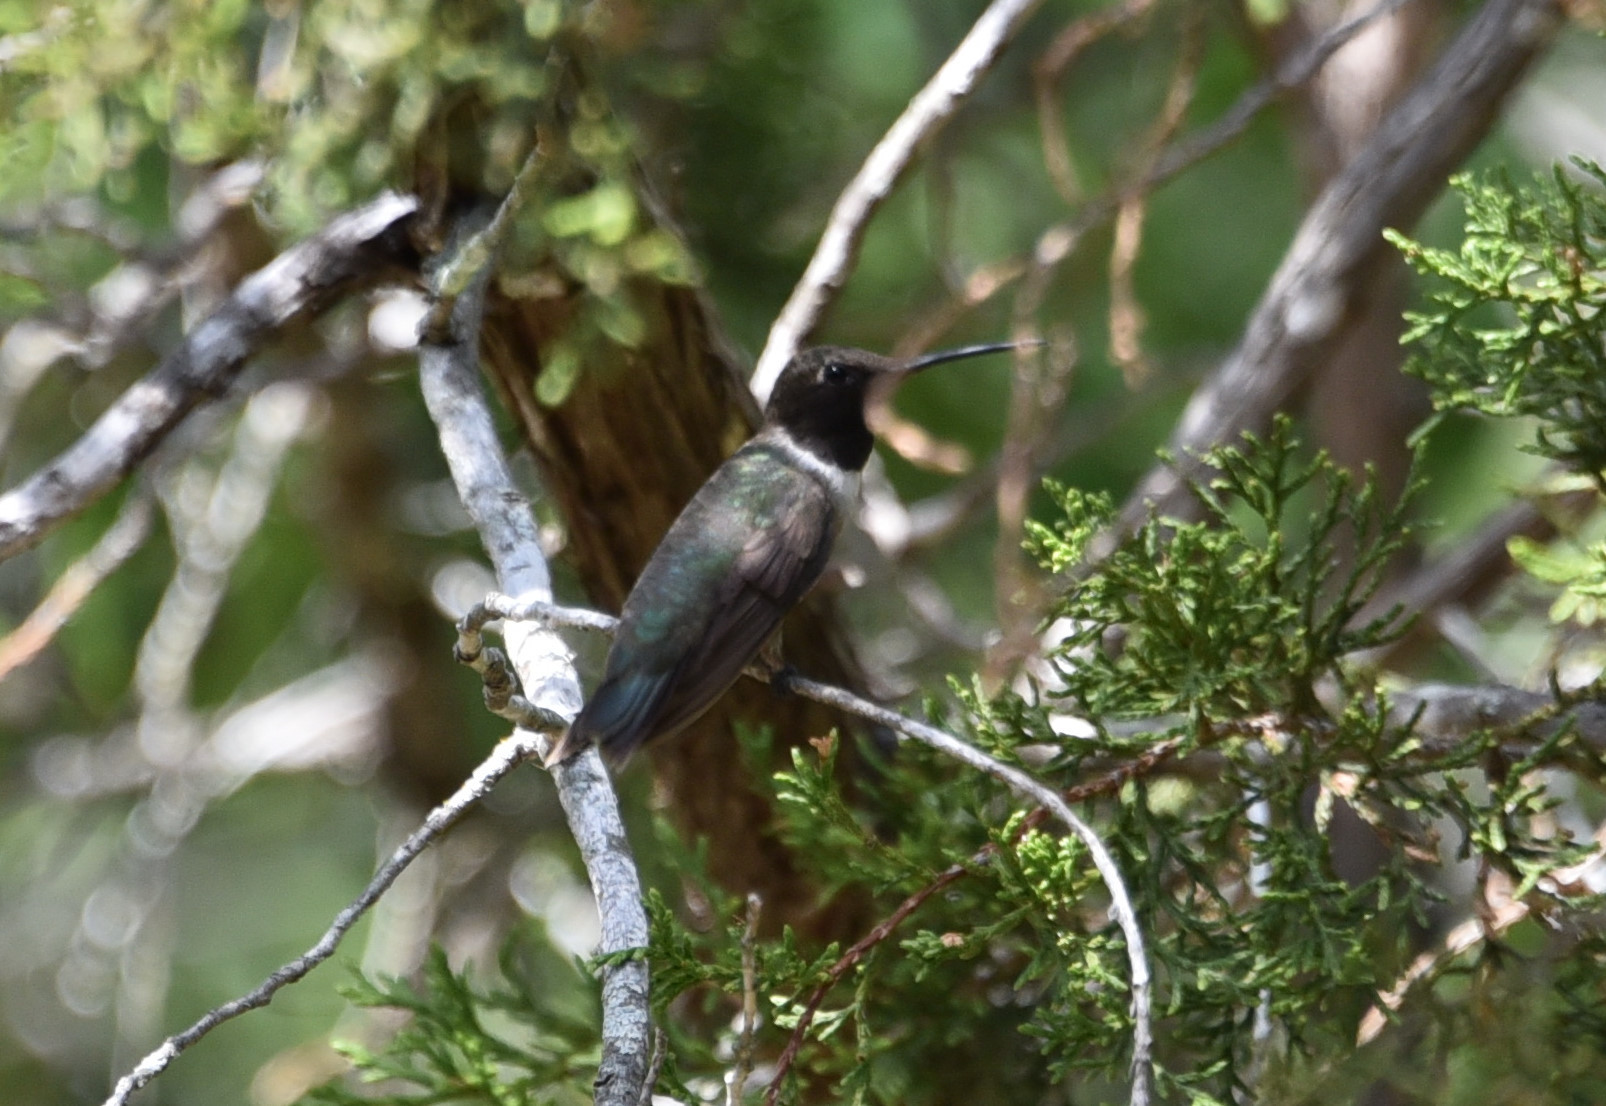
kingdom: Animalia
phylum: Chordata
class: Aves
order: Apodiformes
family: Trochilidae
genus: Archilochus
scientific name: Archilochus alexandri
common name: Black-chinned hummingbird
